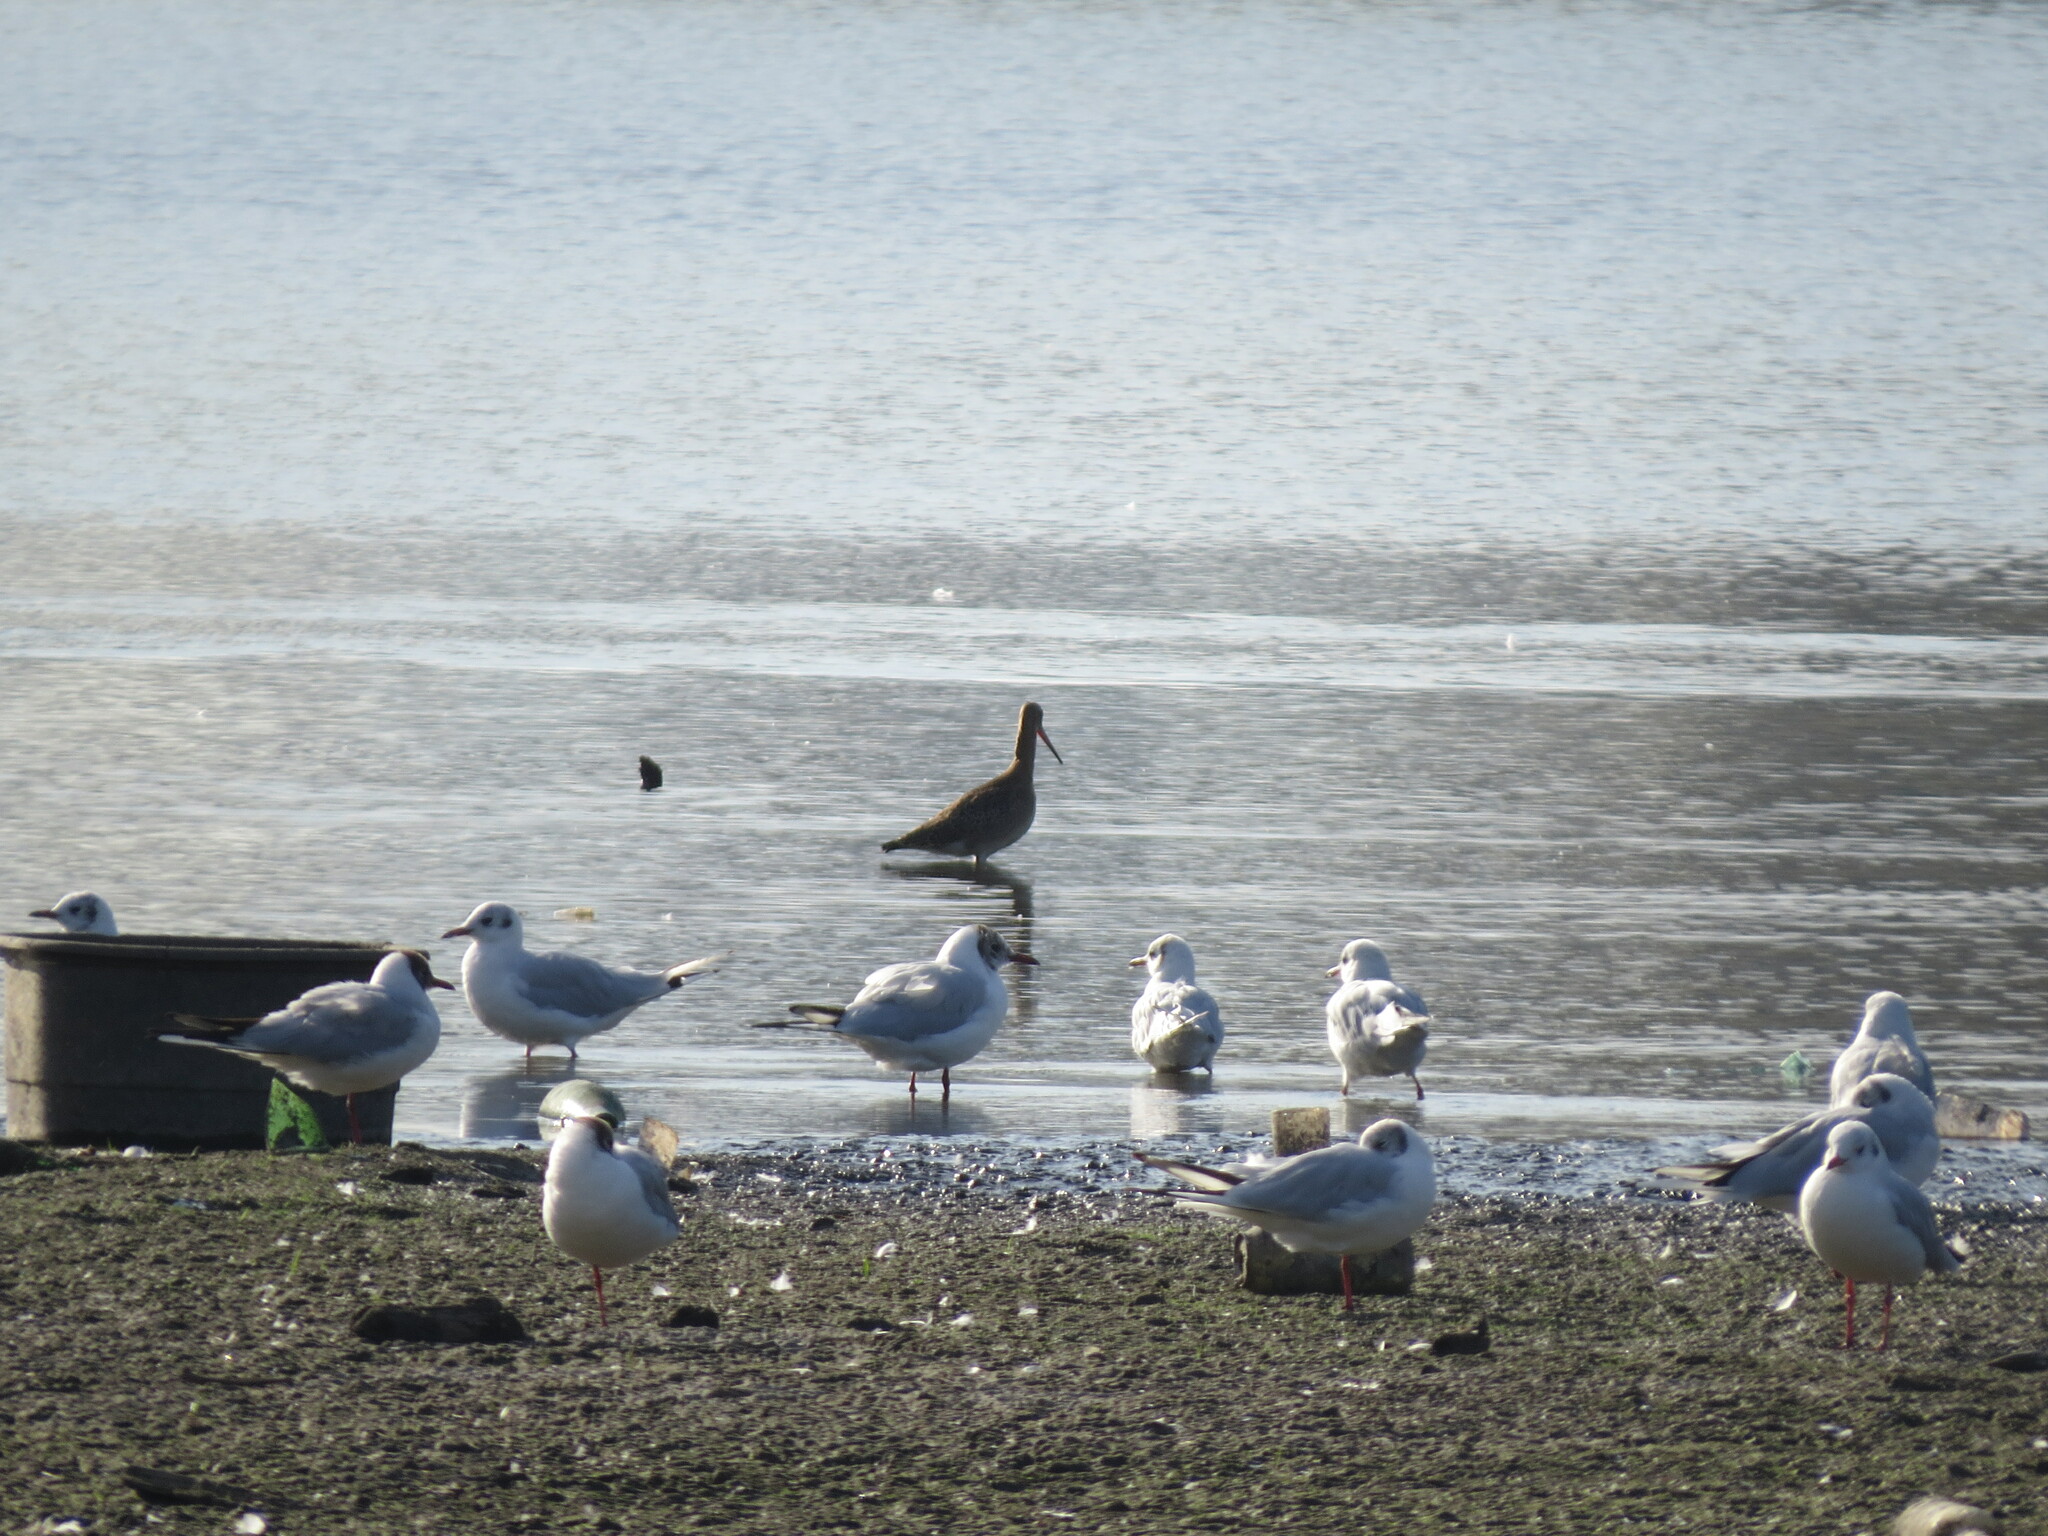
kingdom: Animalia
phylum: Chordata
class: Aves
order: Charadriiformes
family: Scolopacidae
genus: Limosa
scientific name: Limosa limosa
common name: Black-tailed godwit
